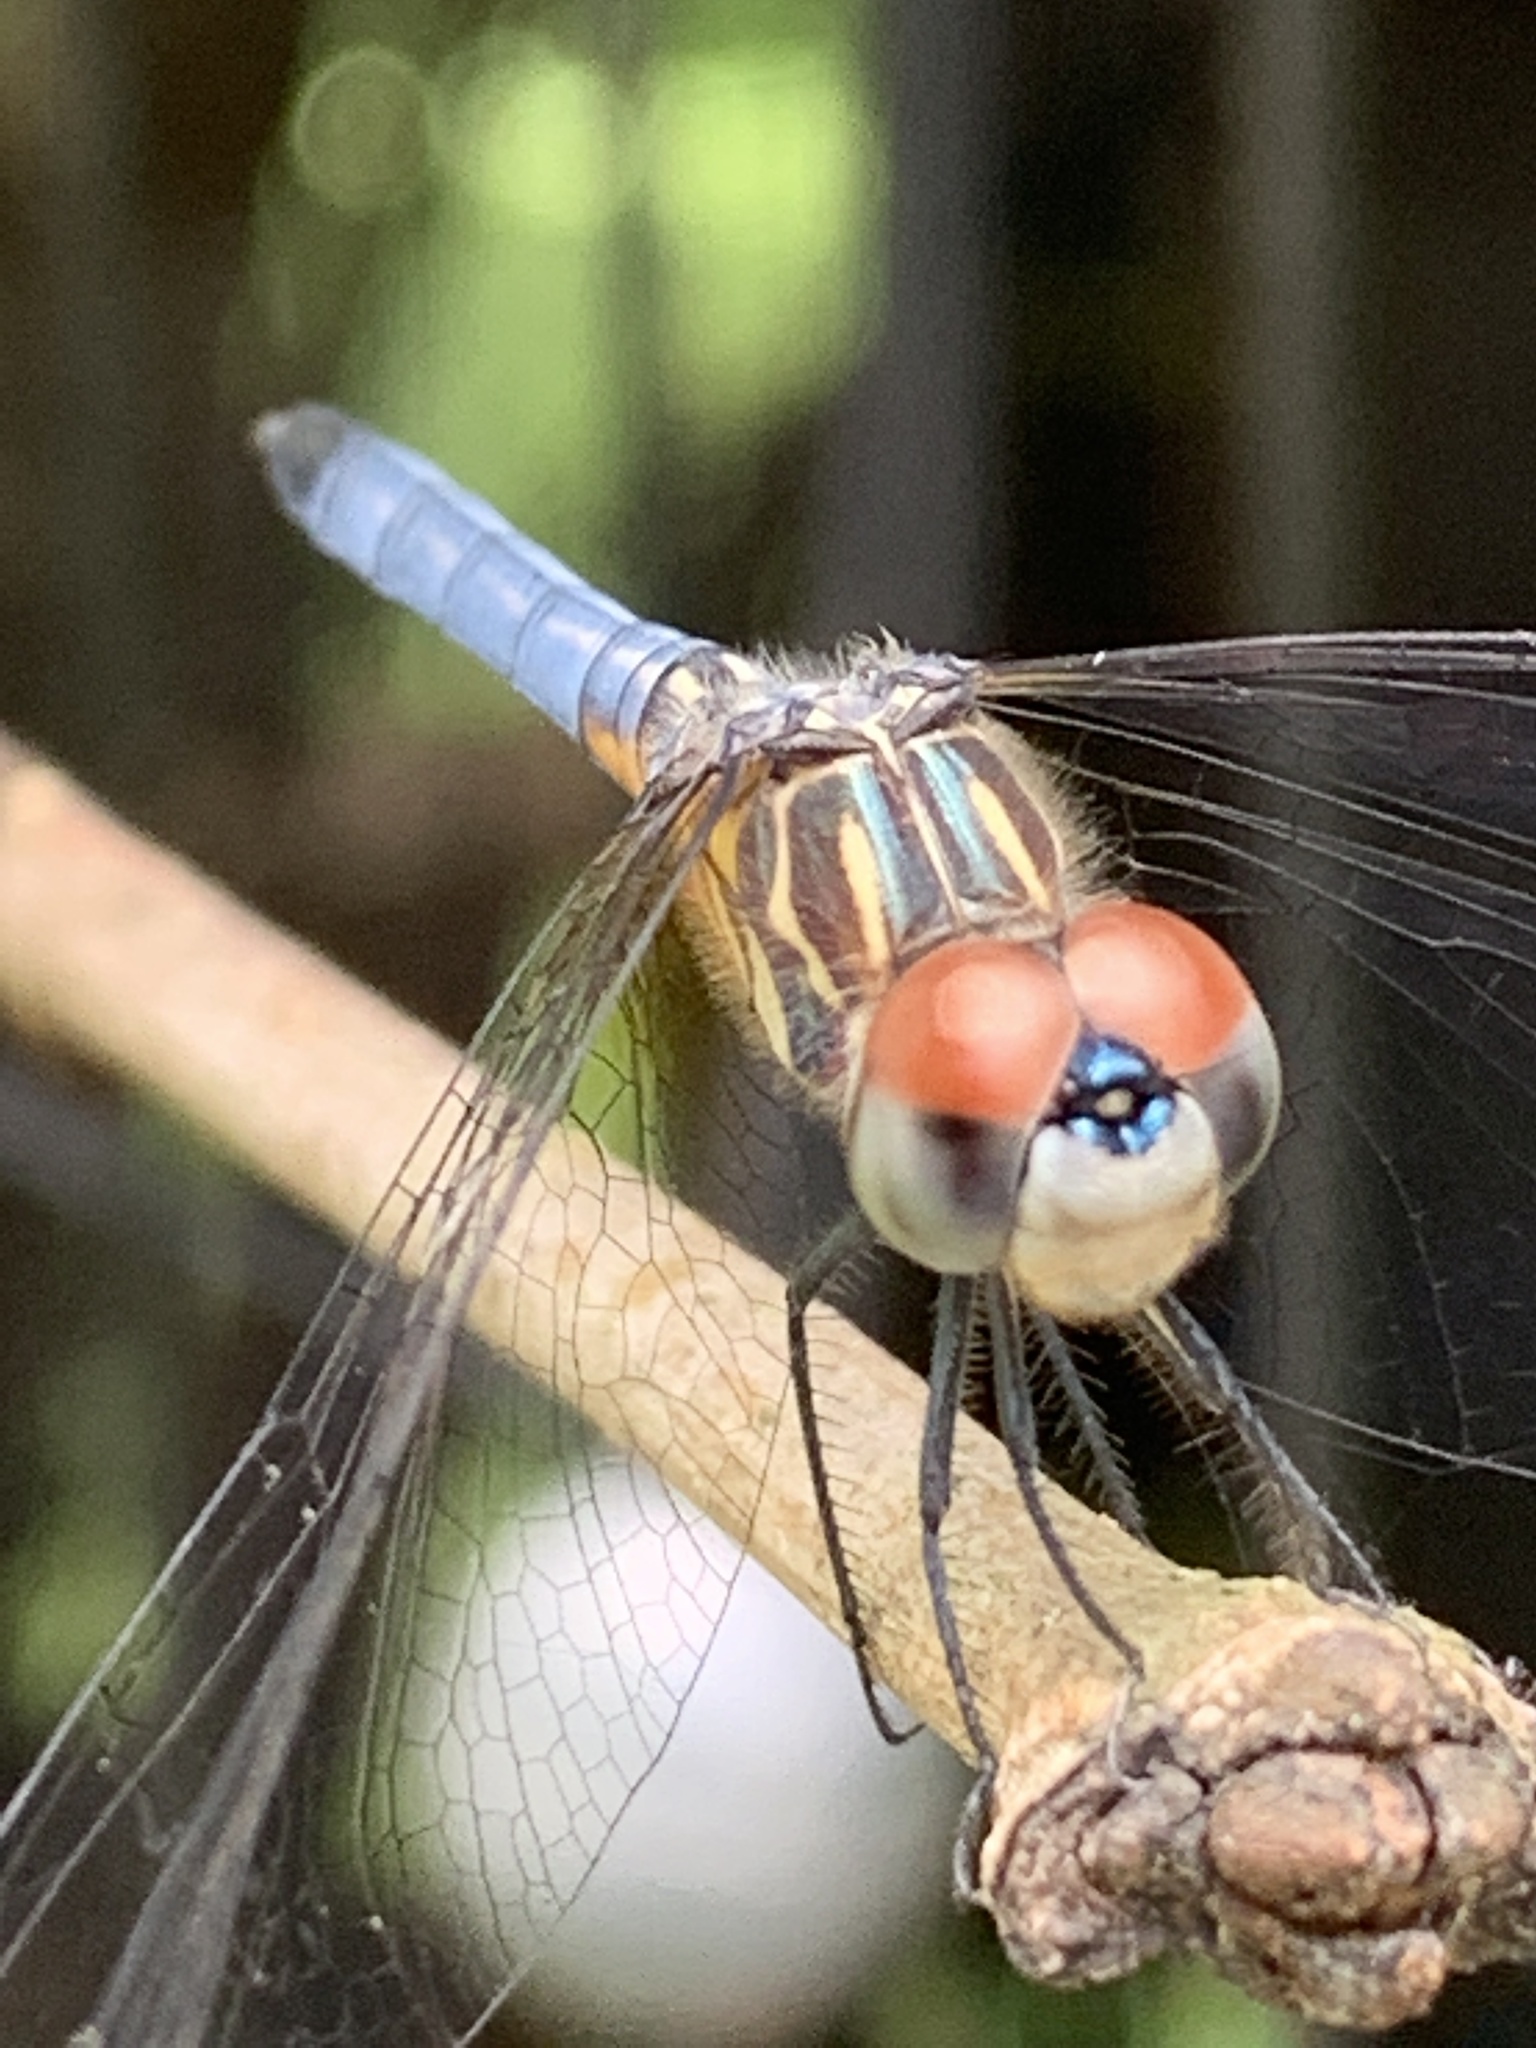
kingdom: Animalia
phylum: Arthropoda
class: Insecta
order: Odonata
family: Libellulidae
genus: Pachydiplax
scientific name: Pachydiplax longipennis
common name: Blue dasher
